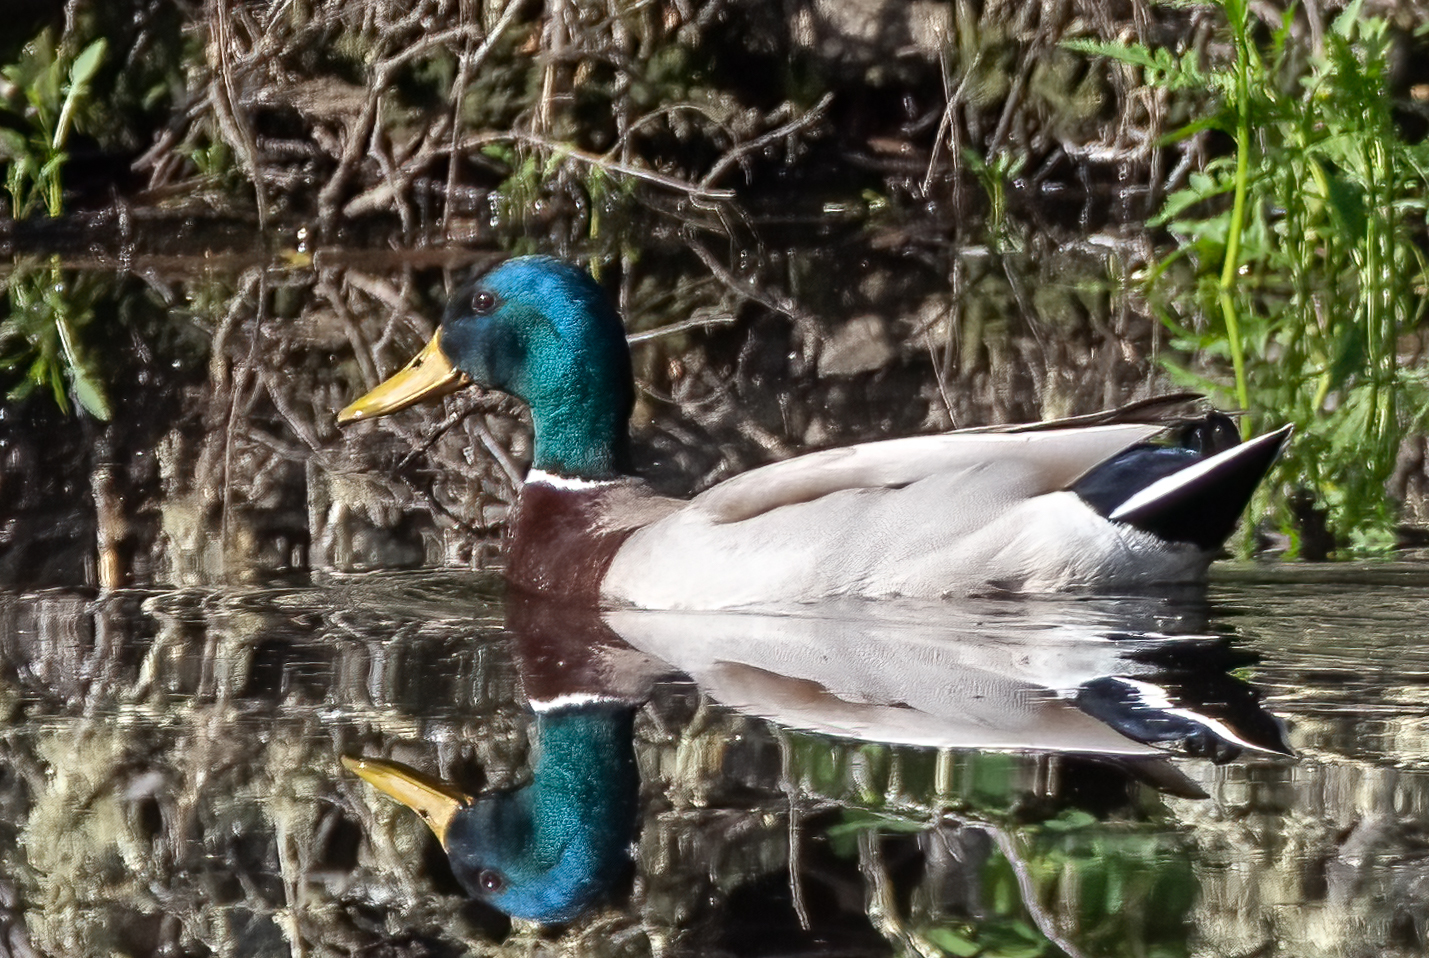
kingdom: Animalia
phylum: Chordata
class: Aves
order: Anseriformes
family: Anatidae
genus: Anas
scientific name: Anas platyrhynchos
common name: Mallard
